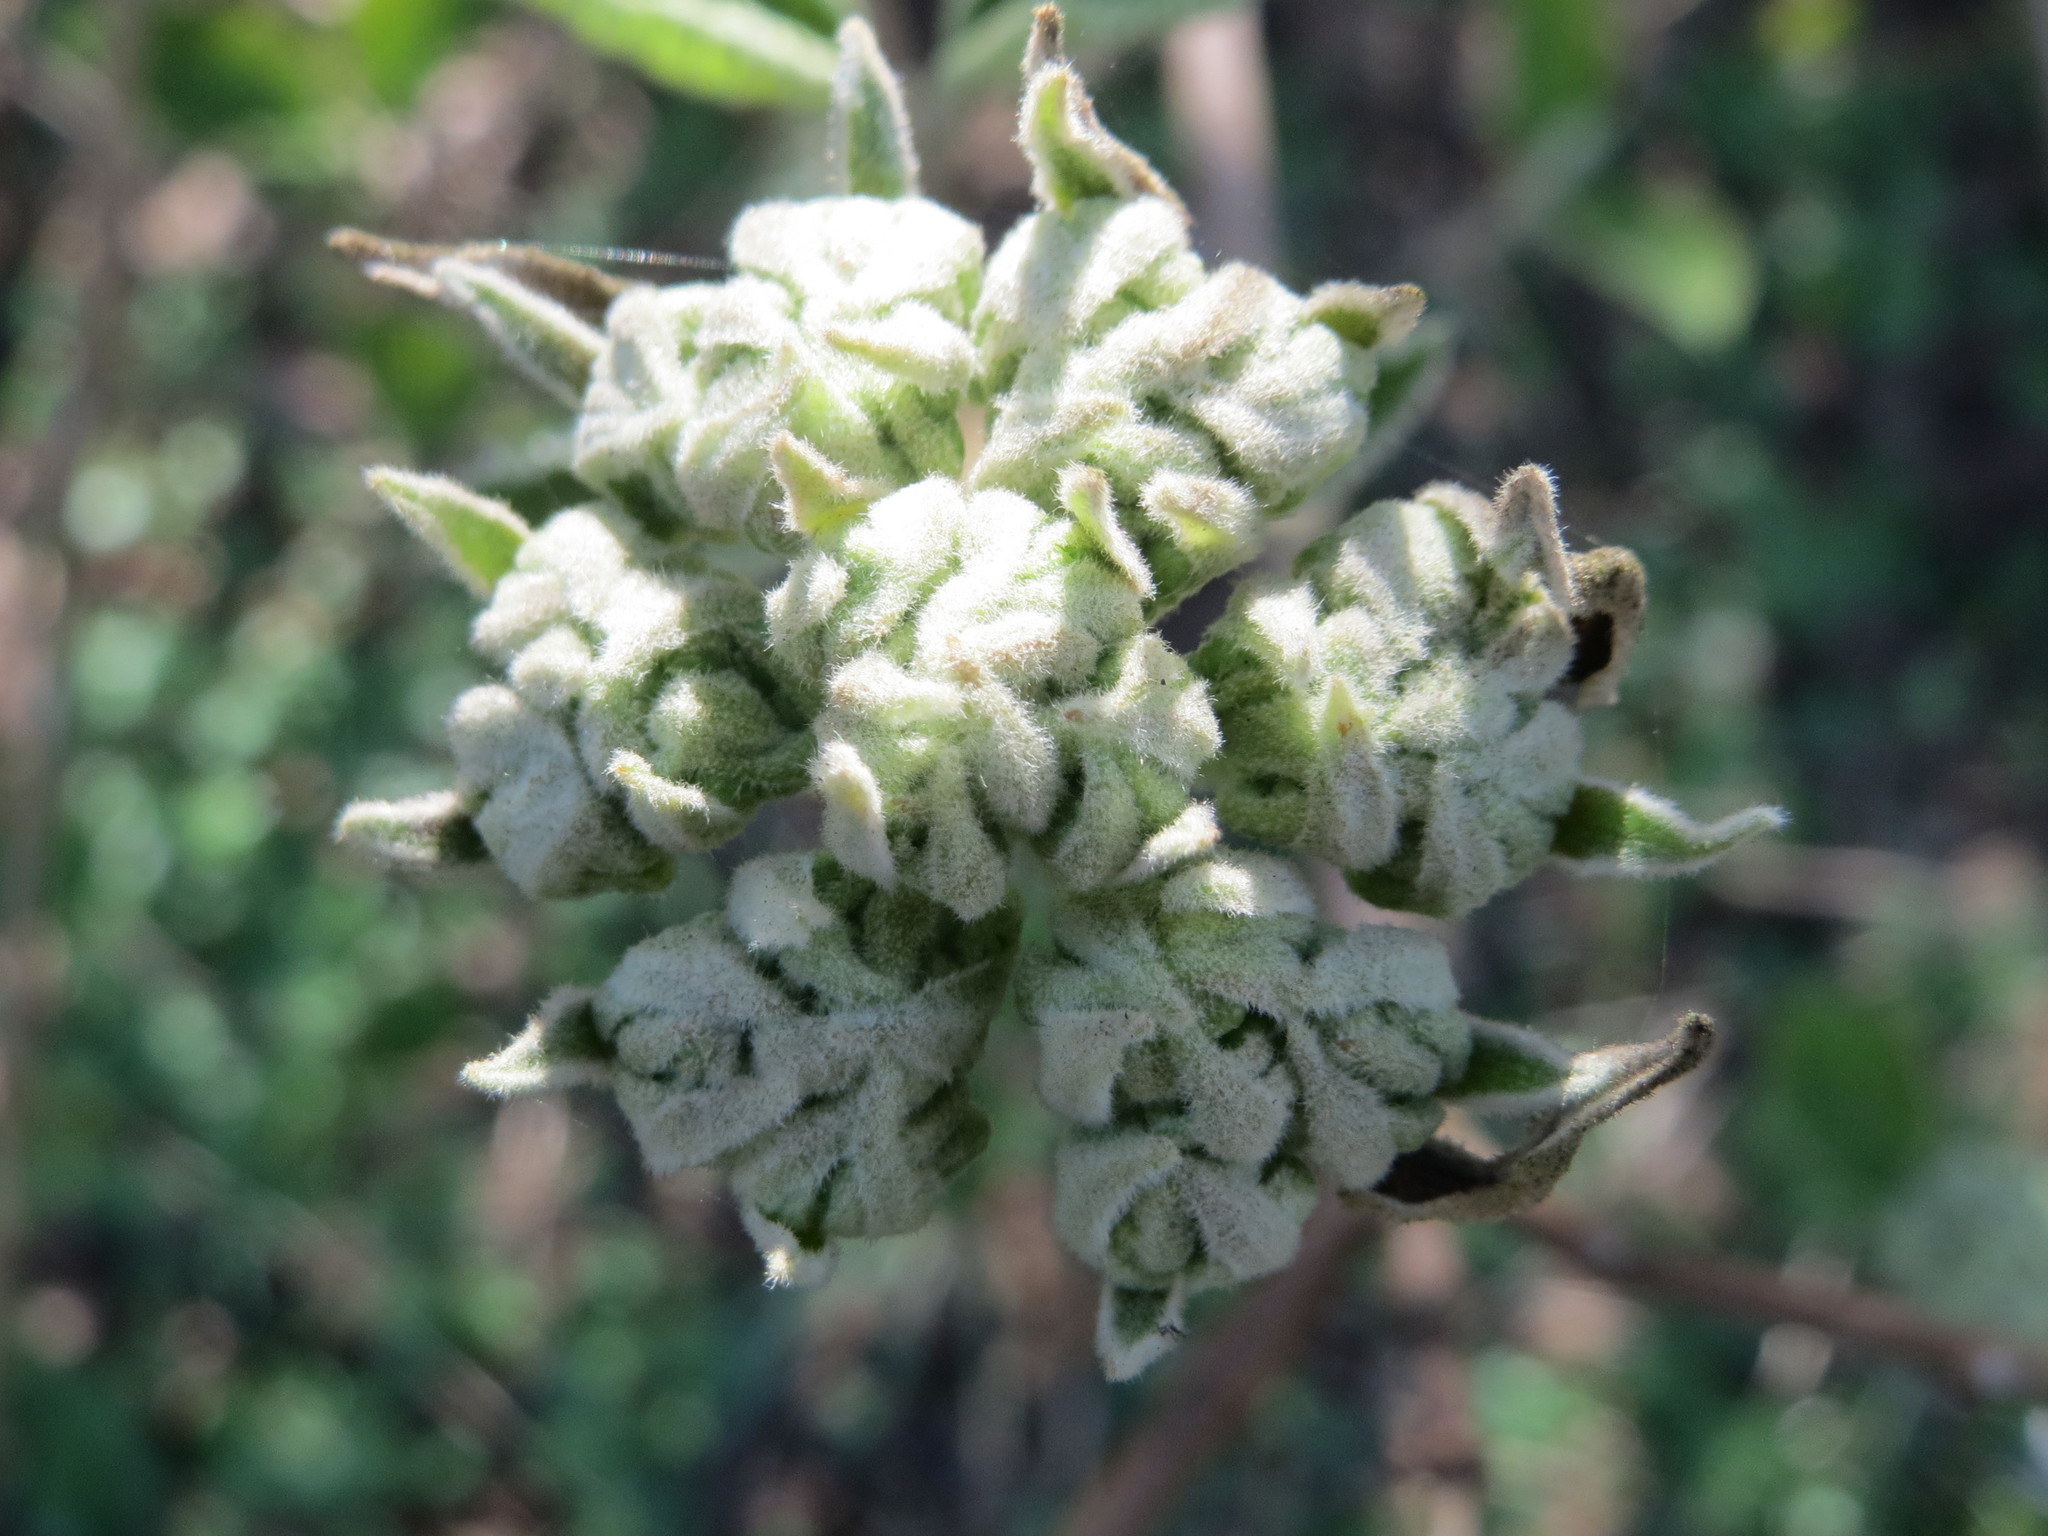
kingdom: Plantae
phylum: Tracheophyta
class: Magnoliopsida
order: Dipsacales
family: Viburnaceae
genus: Viburnum
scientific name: Viburnum lantana
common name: Wayfaring tree
